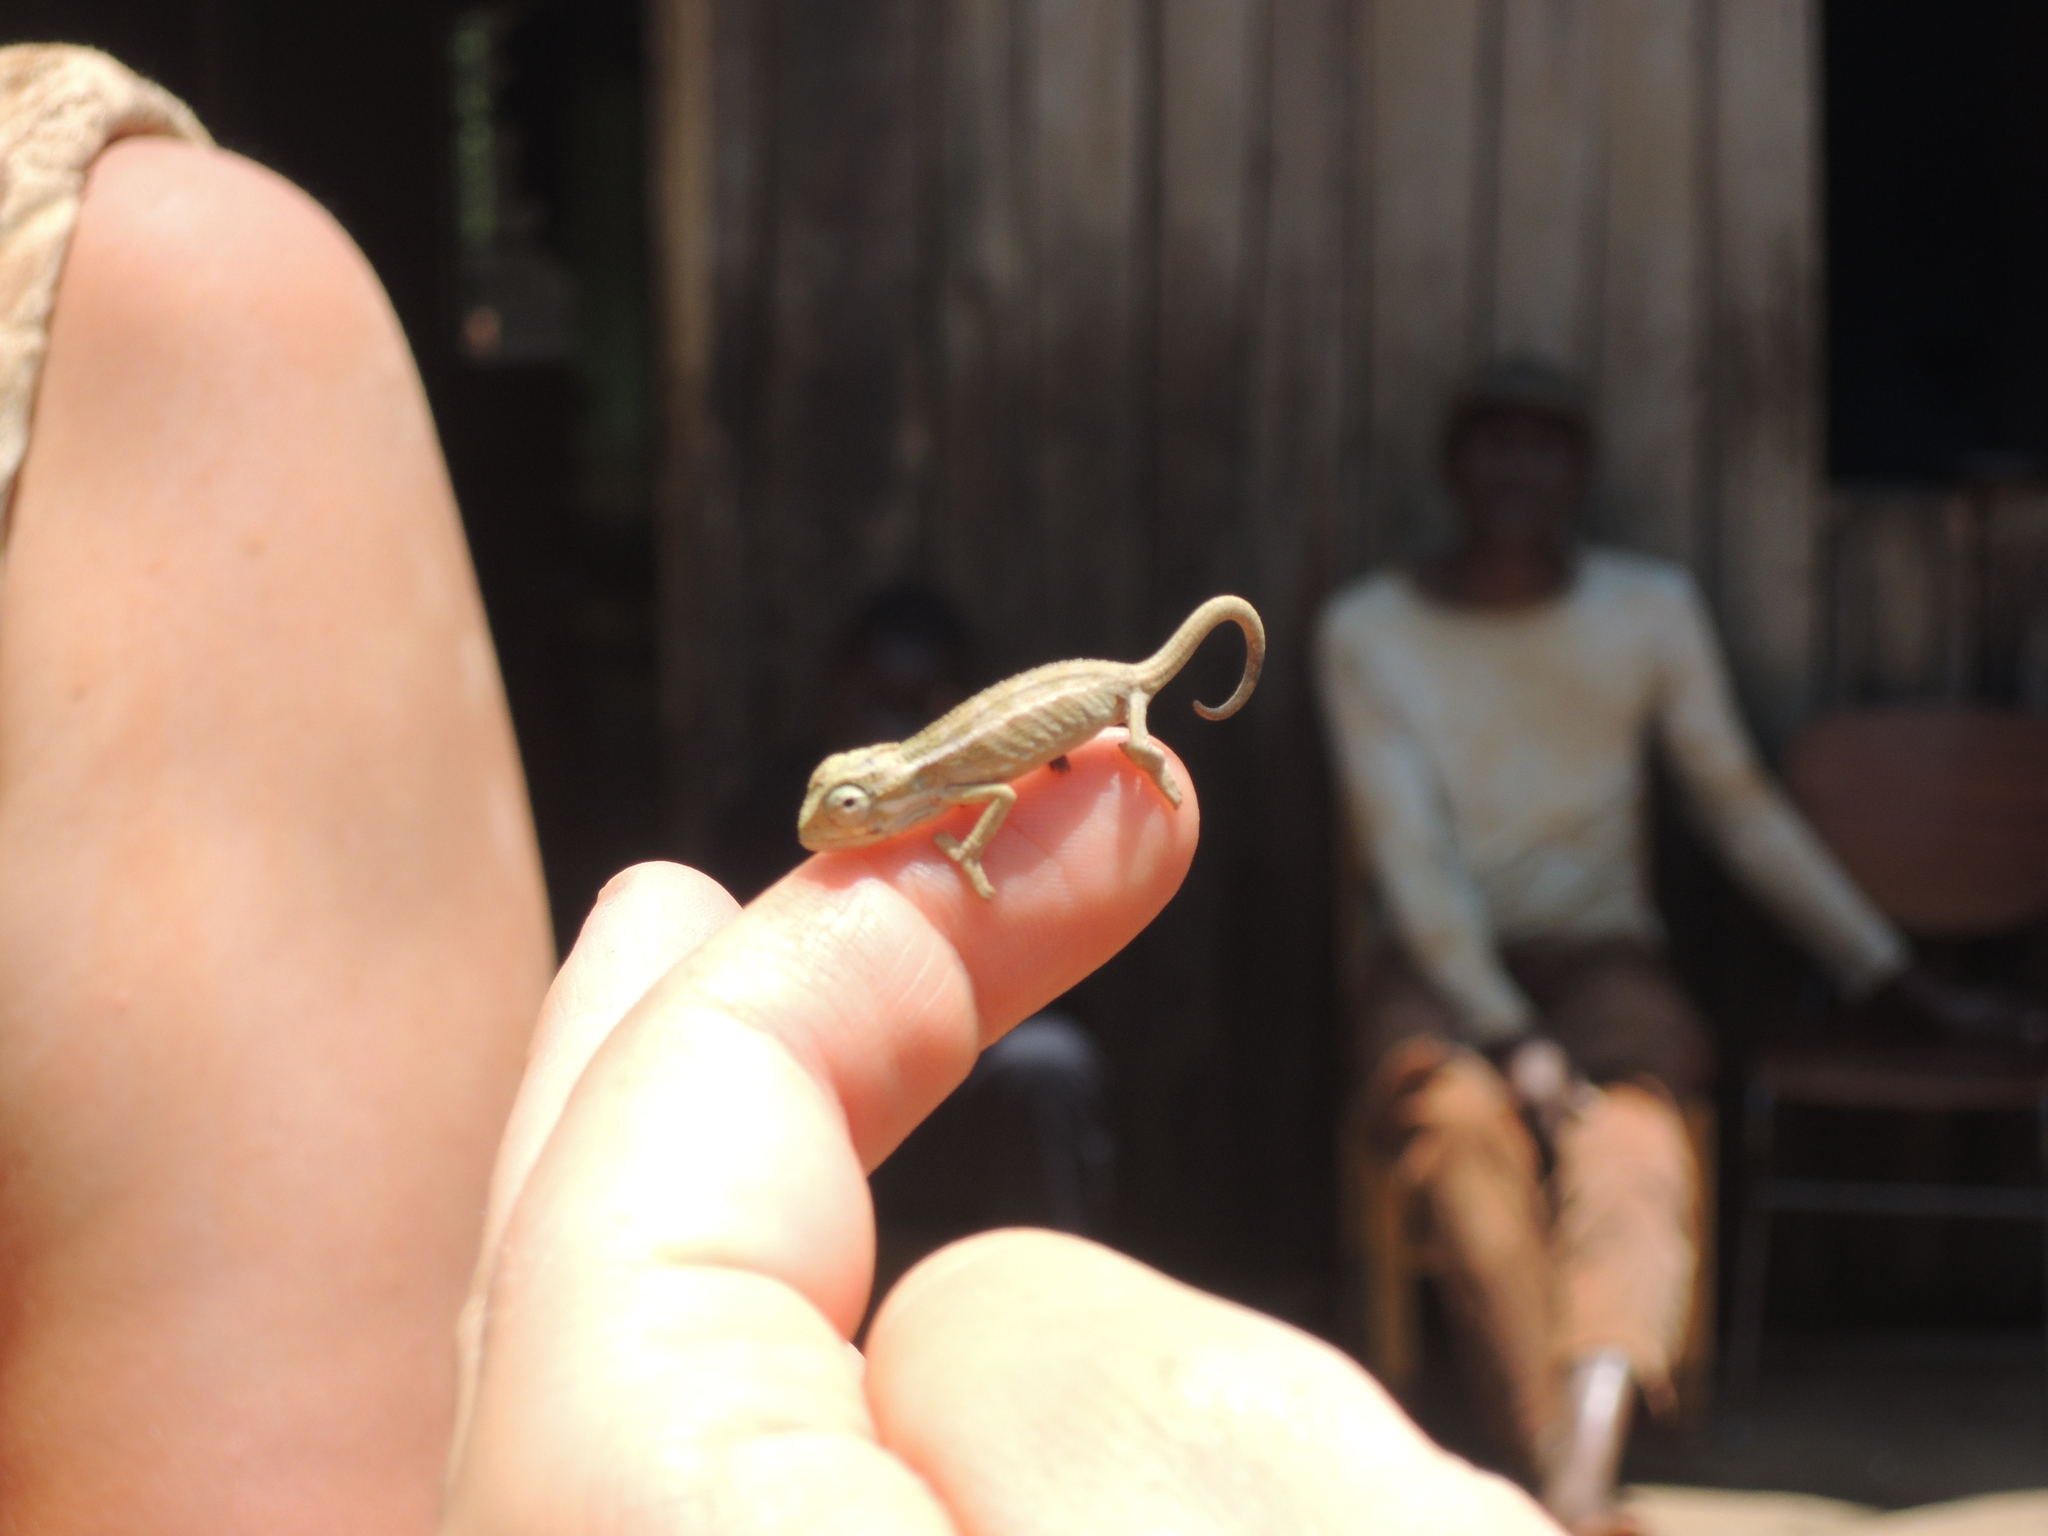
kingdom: Animalia
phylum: Chordata
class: Squamata
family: Chamaeleonidae
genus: Trioceros
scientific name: Trioceros ellioti
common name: Montane side-striped chameleon
